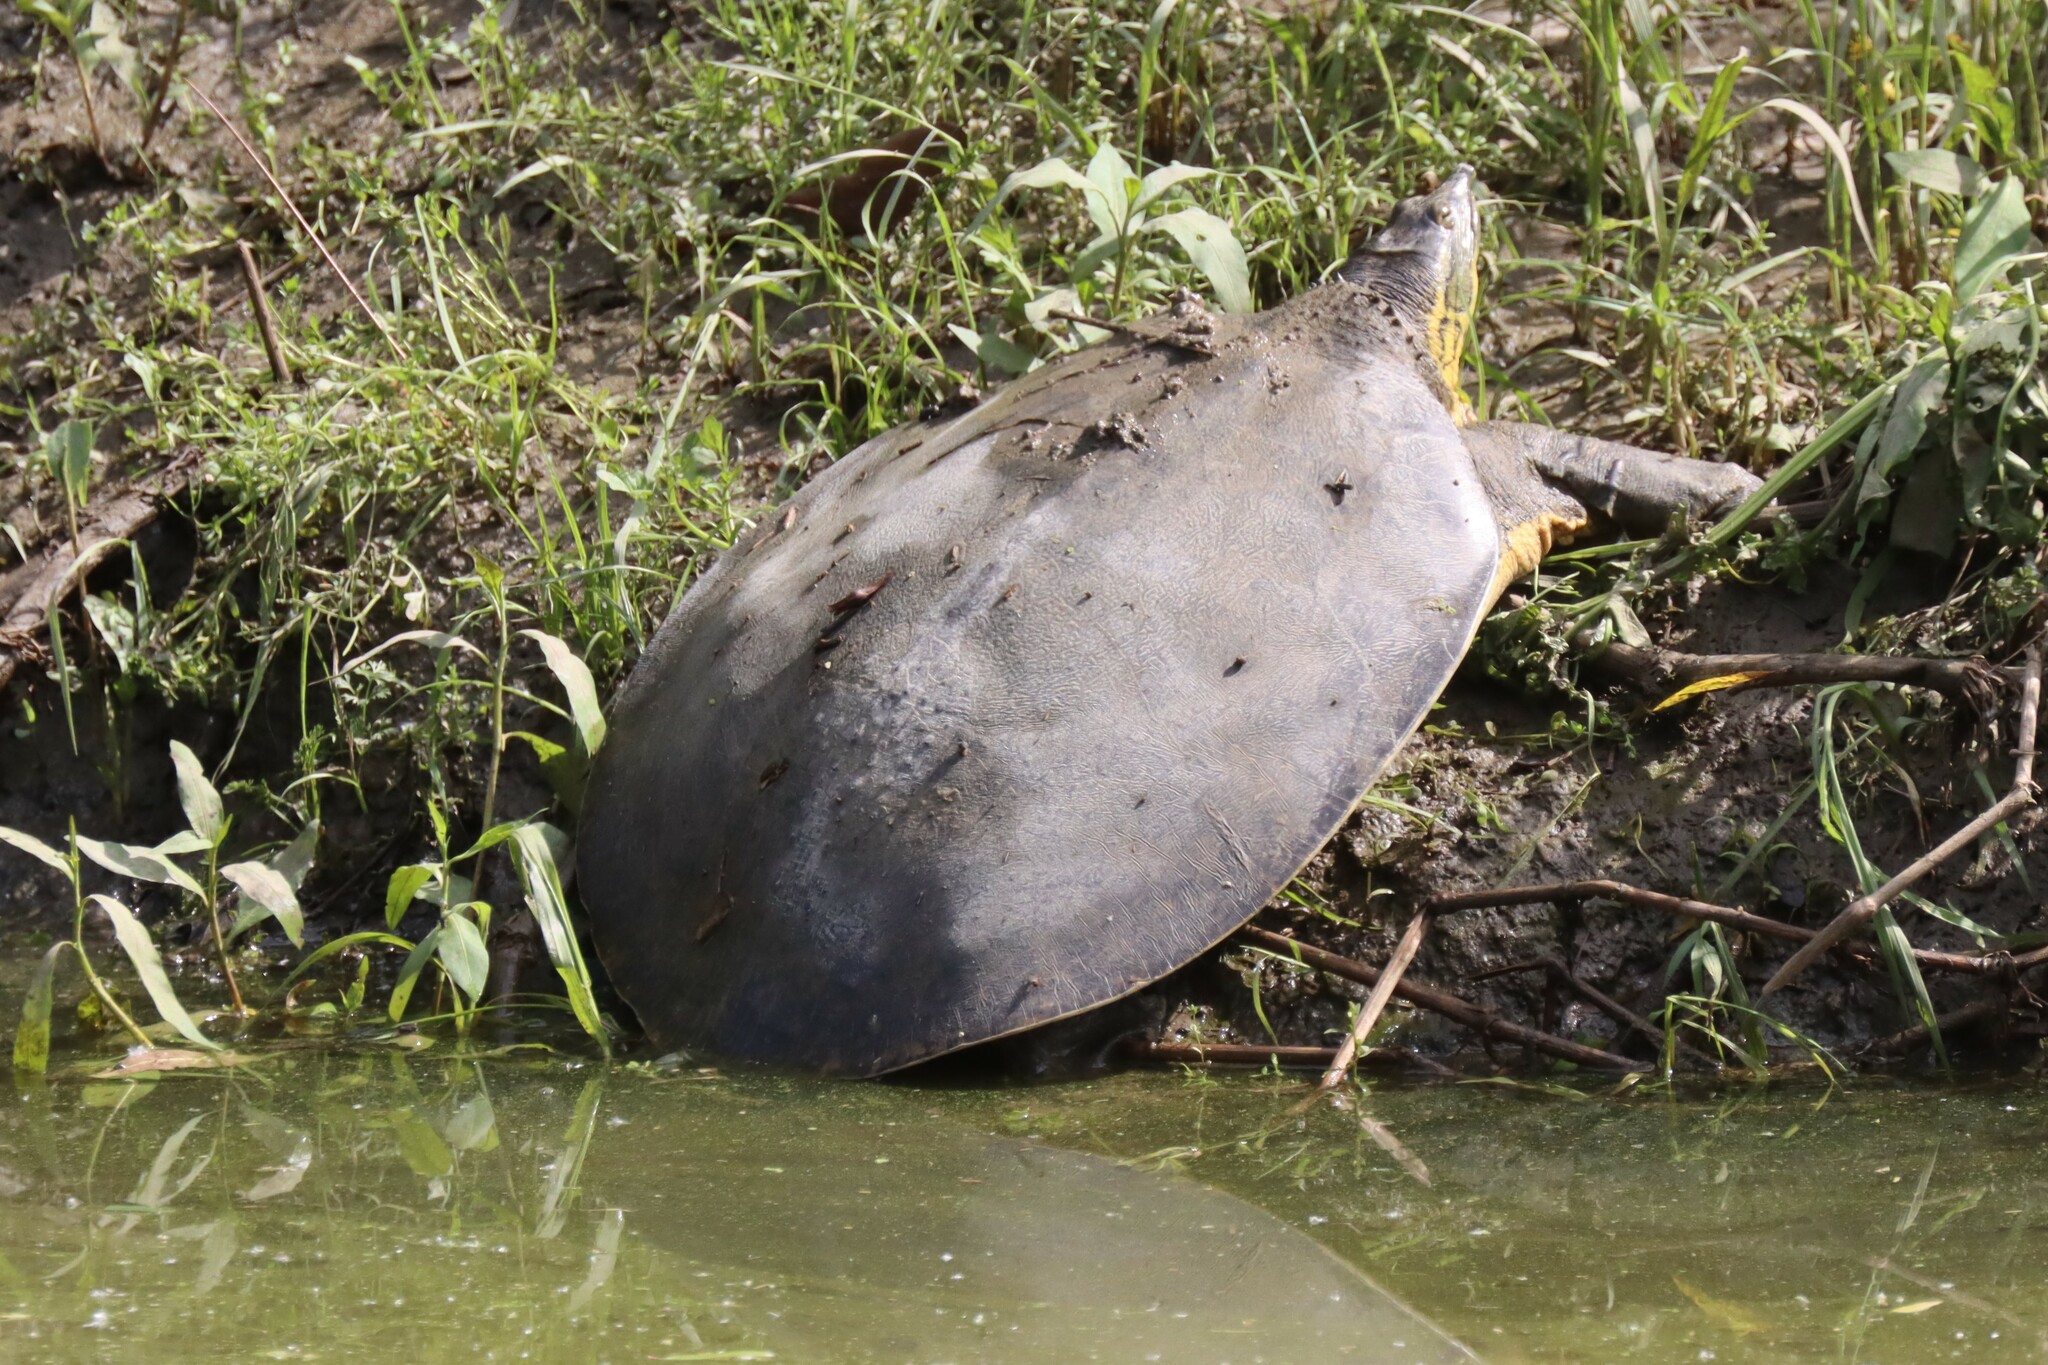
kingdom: Animalia
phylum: Chordata
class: Testudines
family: Trionychidae
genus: Apalone
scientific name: Apalone spinifera
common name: Spiny softshell turtle
